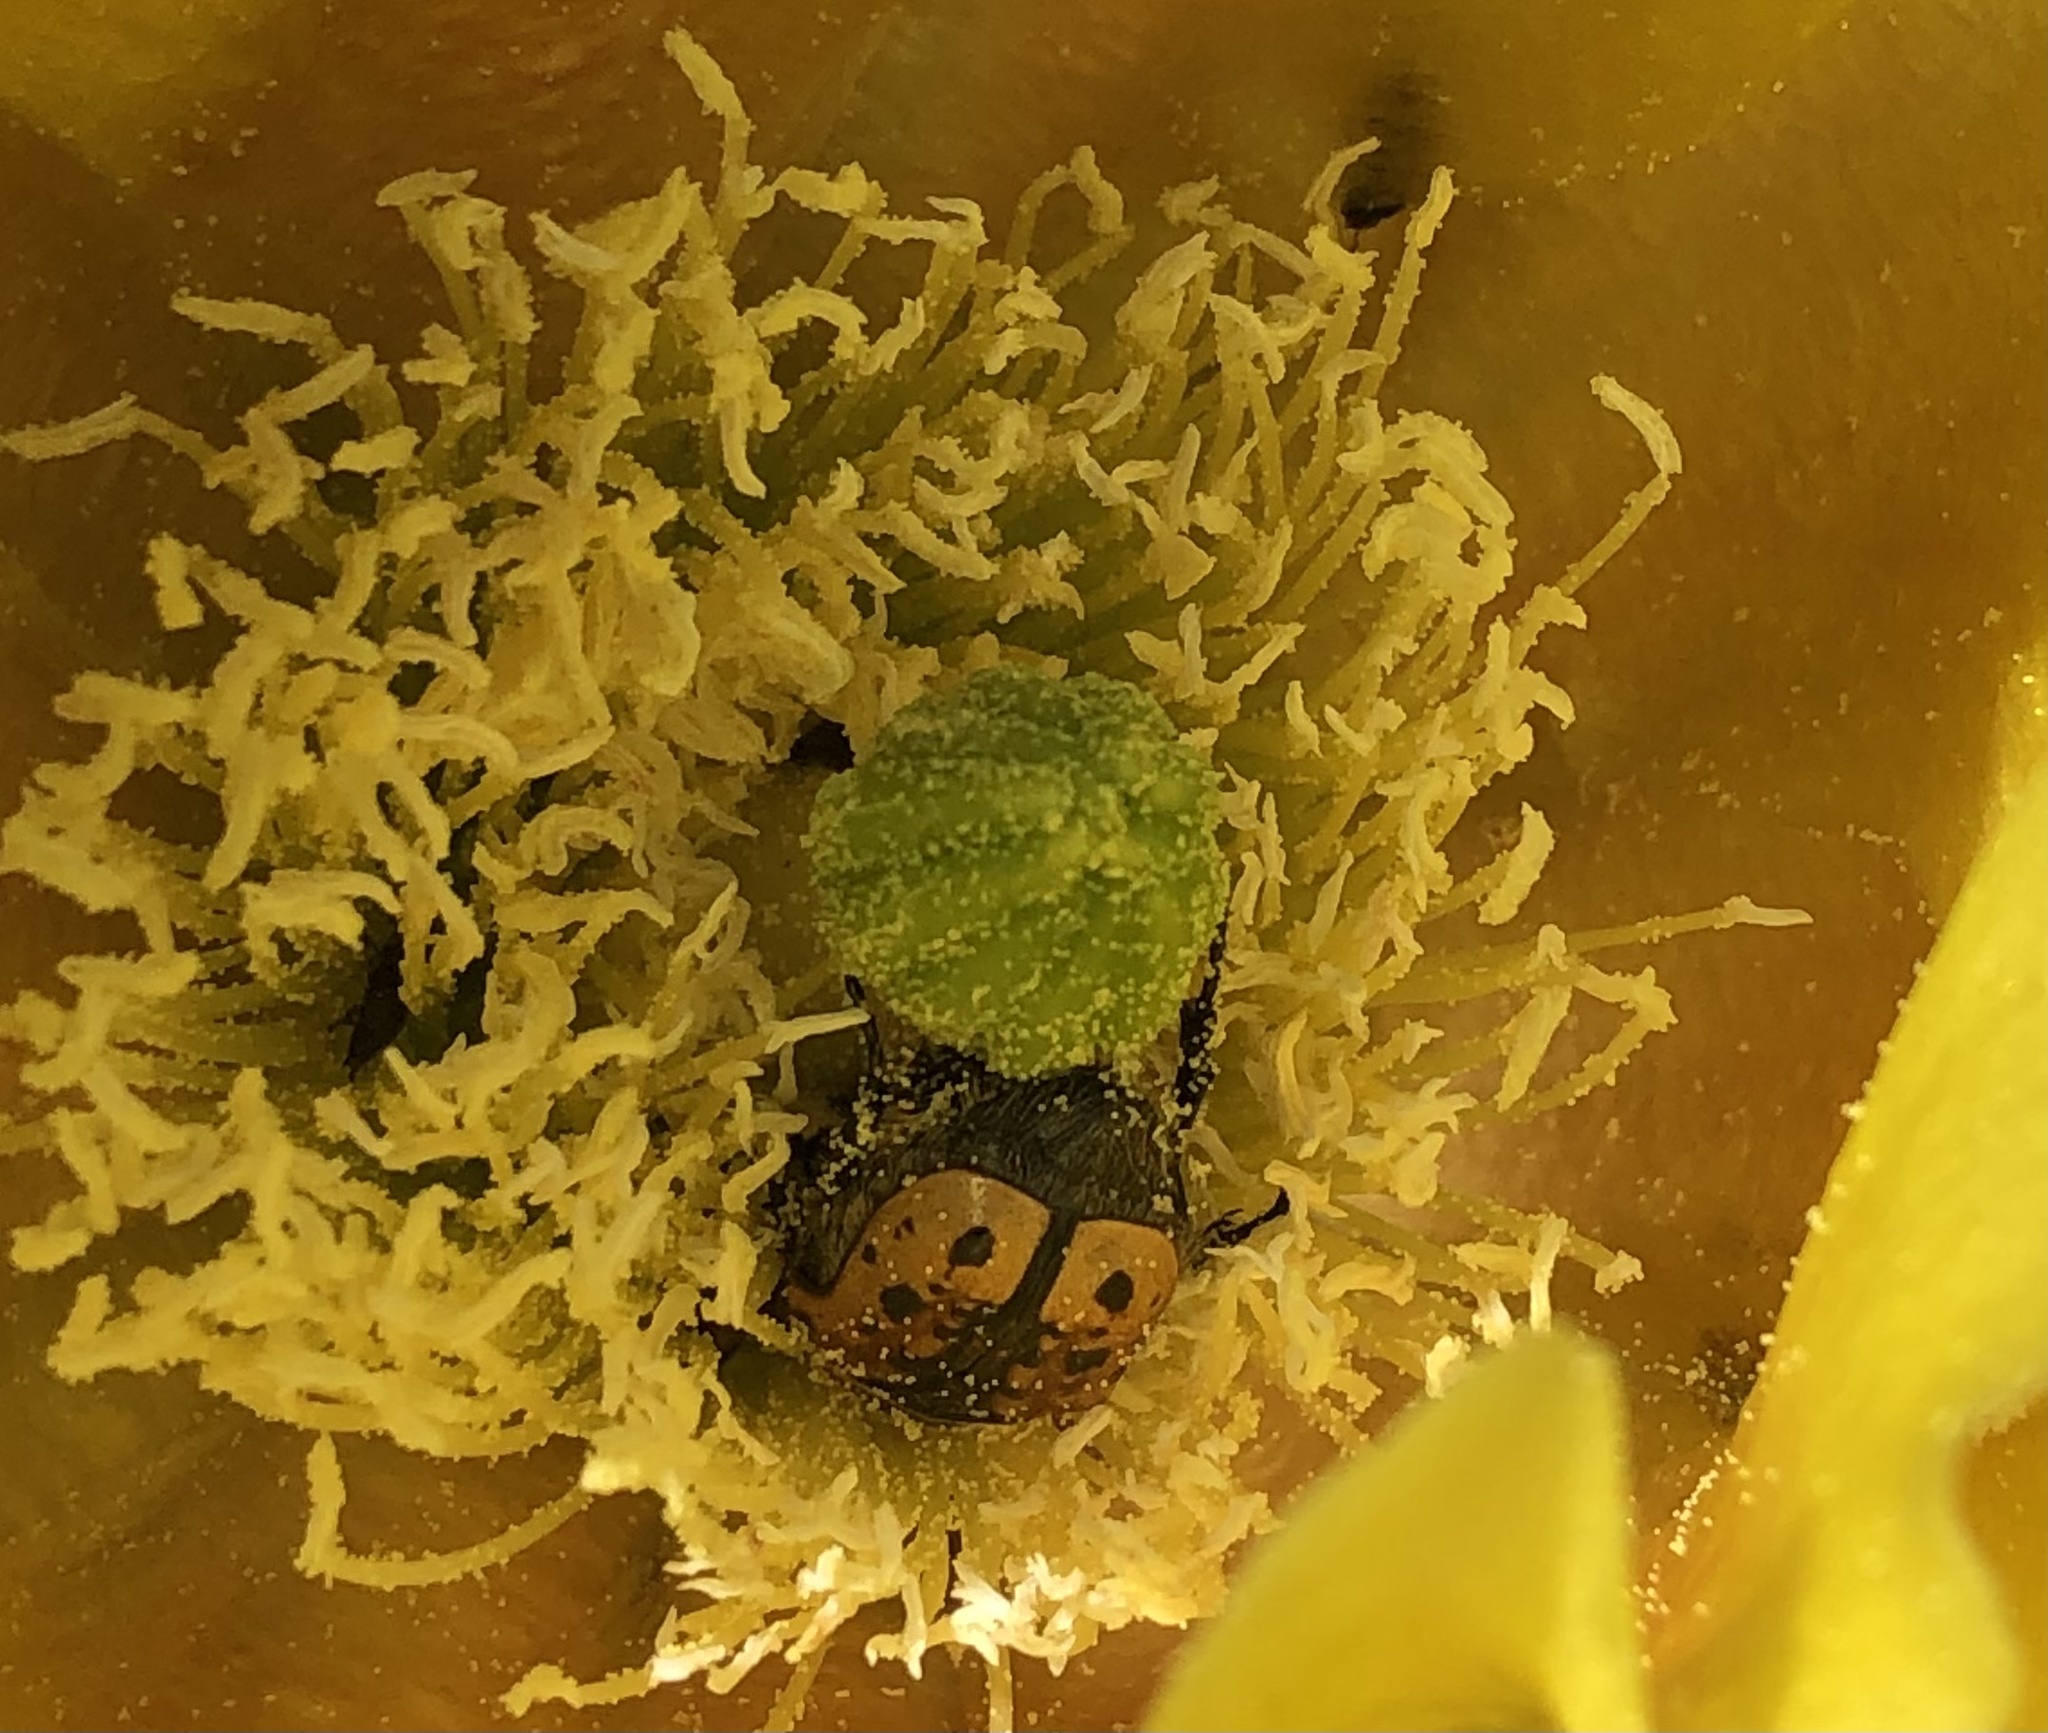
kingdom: Animalia
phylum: Arthropoda
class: Insecta
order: Coleoptera
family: Scarabaeidae
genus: Euphoria
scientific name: Euphoria kernii
